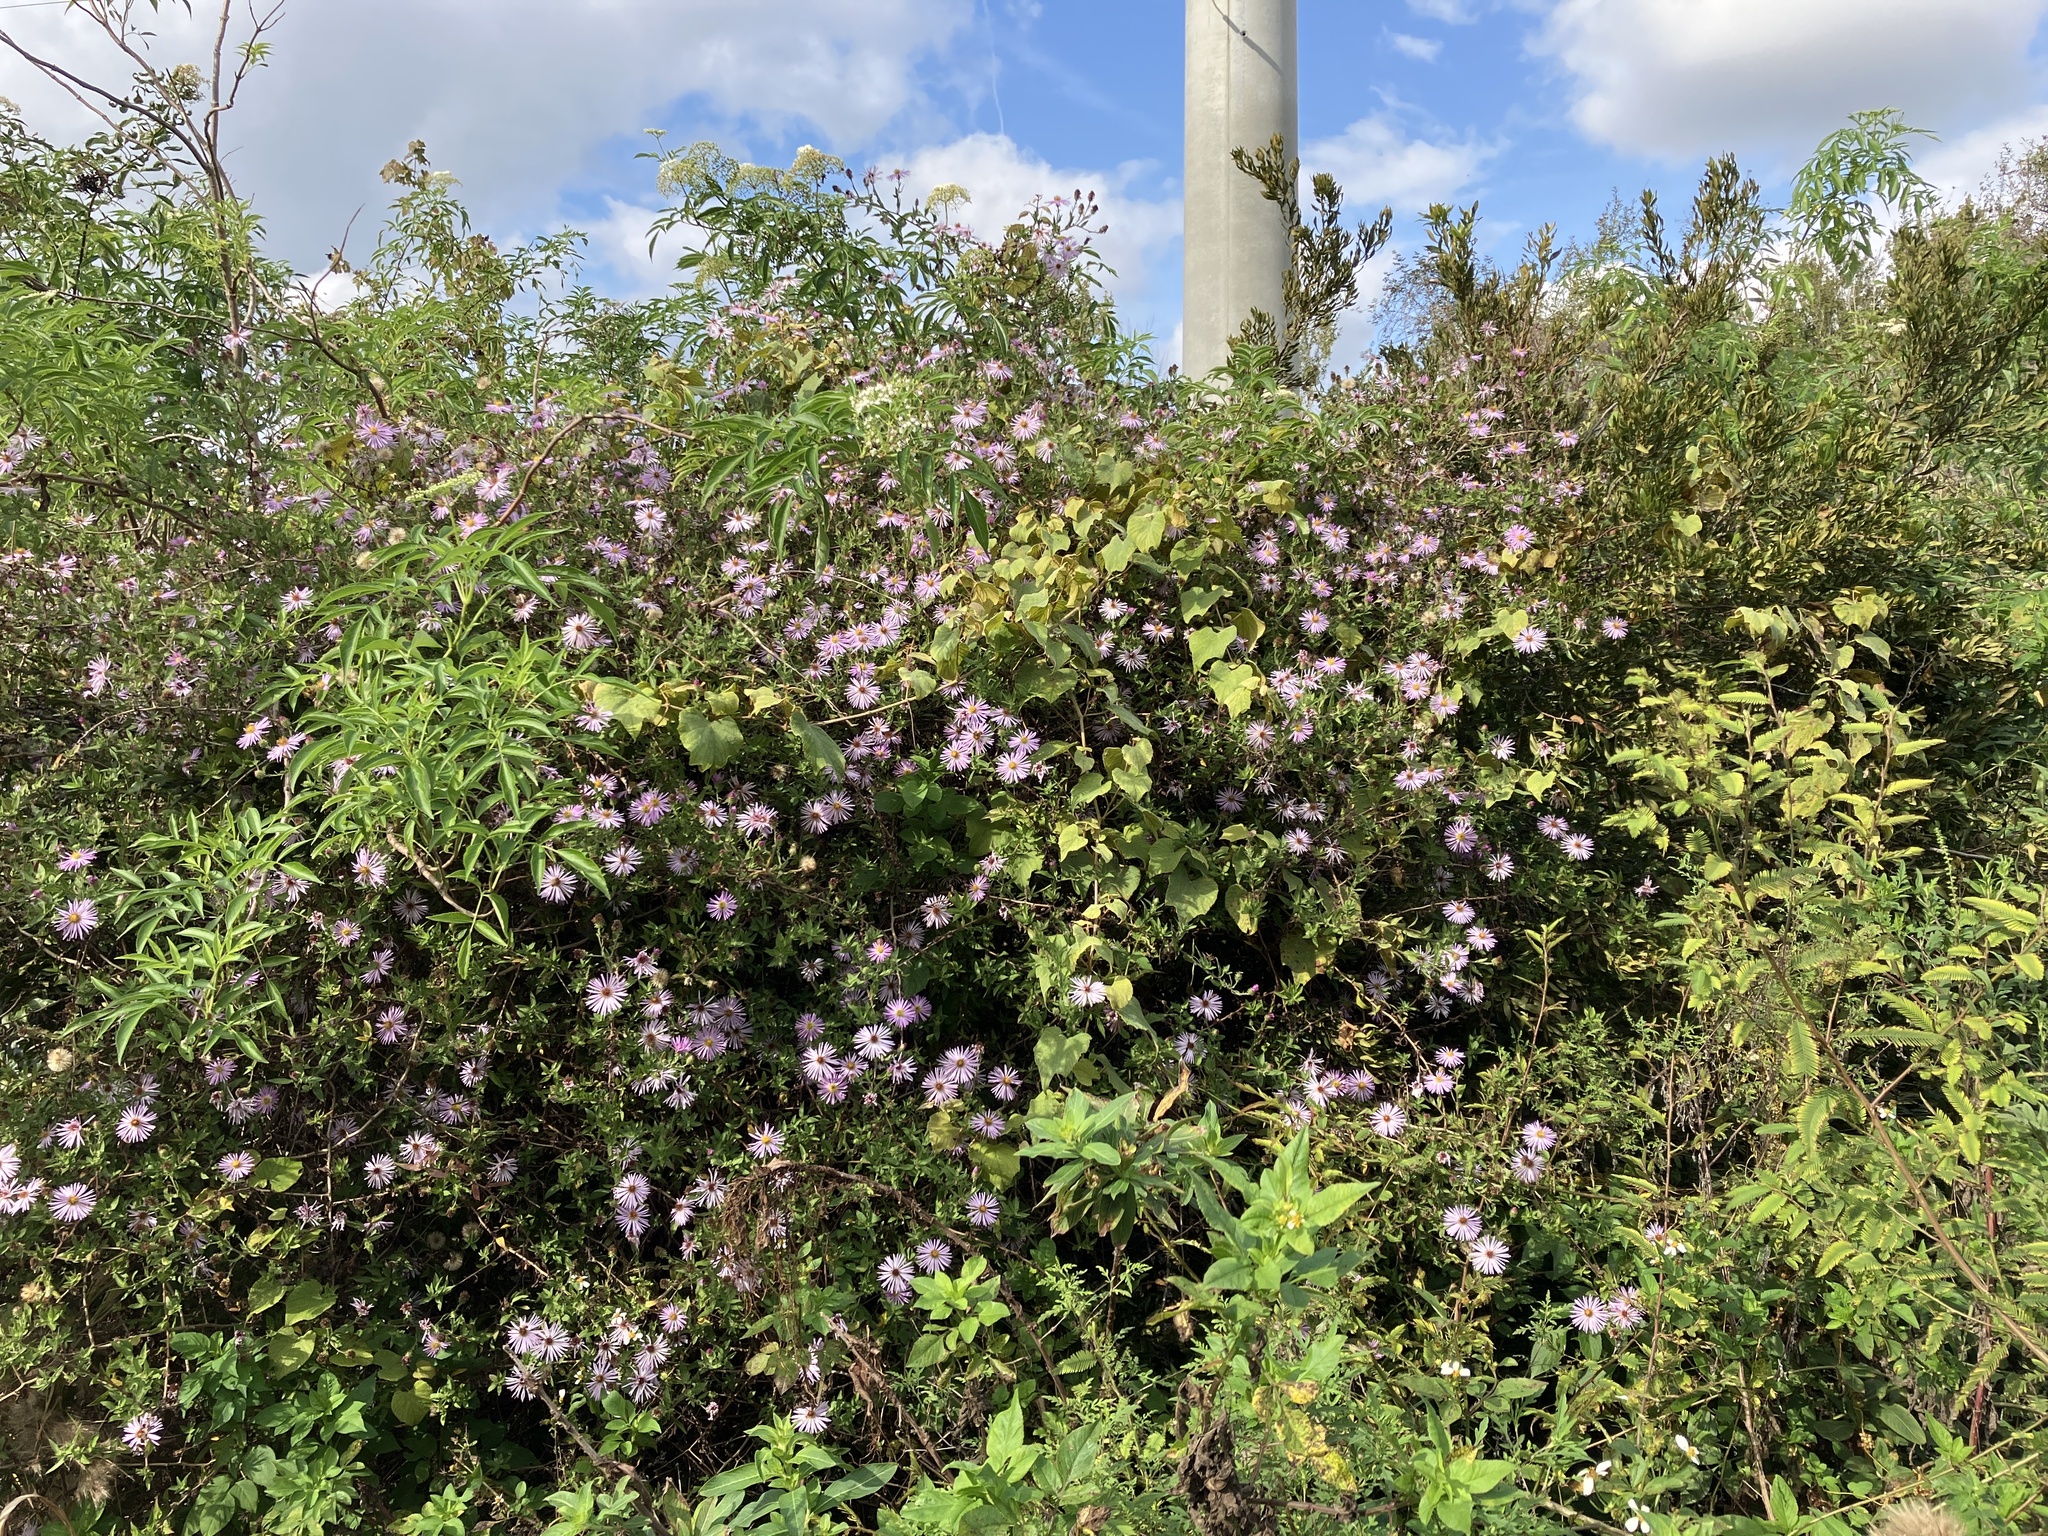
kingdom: Plantae
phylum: Tracheophyta
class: Magnoliopsida
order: Asterales
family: Asteraceae
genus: Ampelaster
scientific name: Ampelaster carolinianus
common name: Climbing aster
